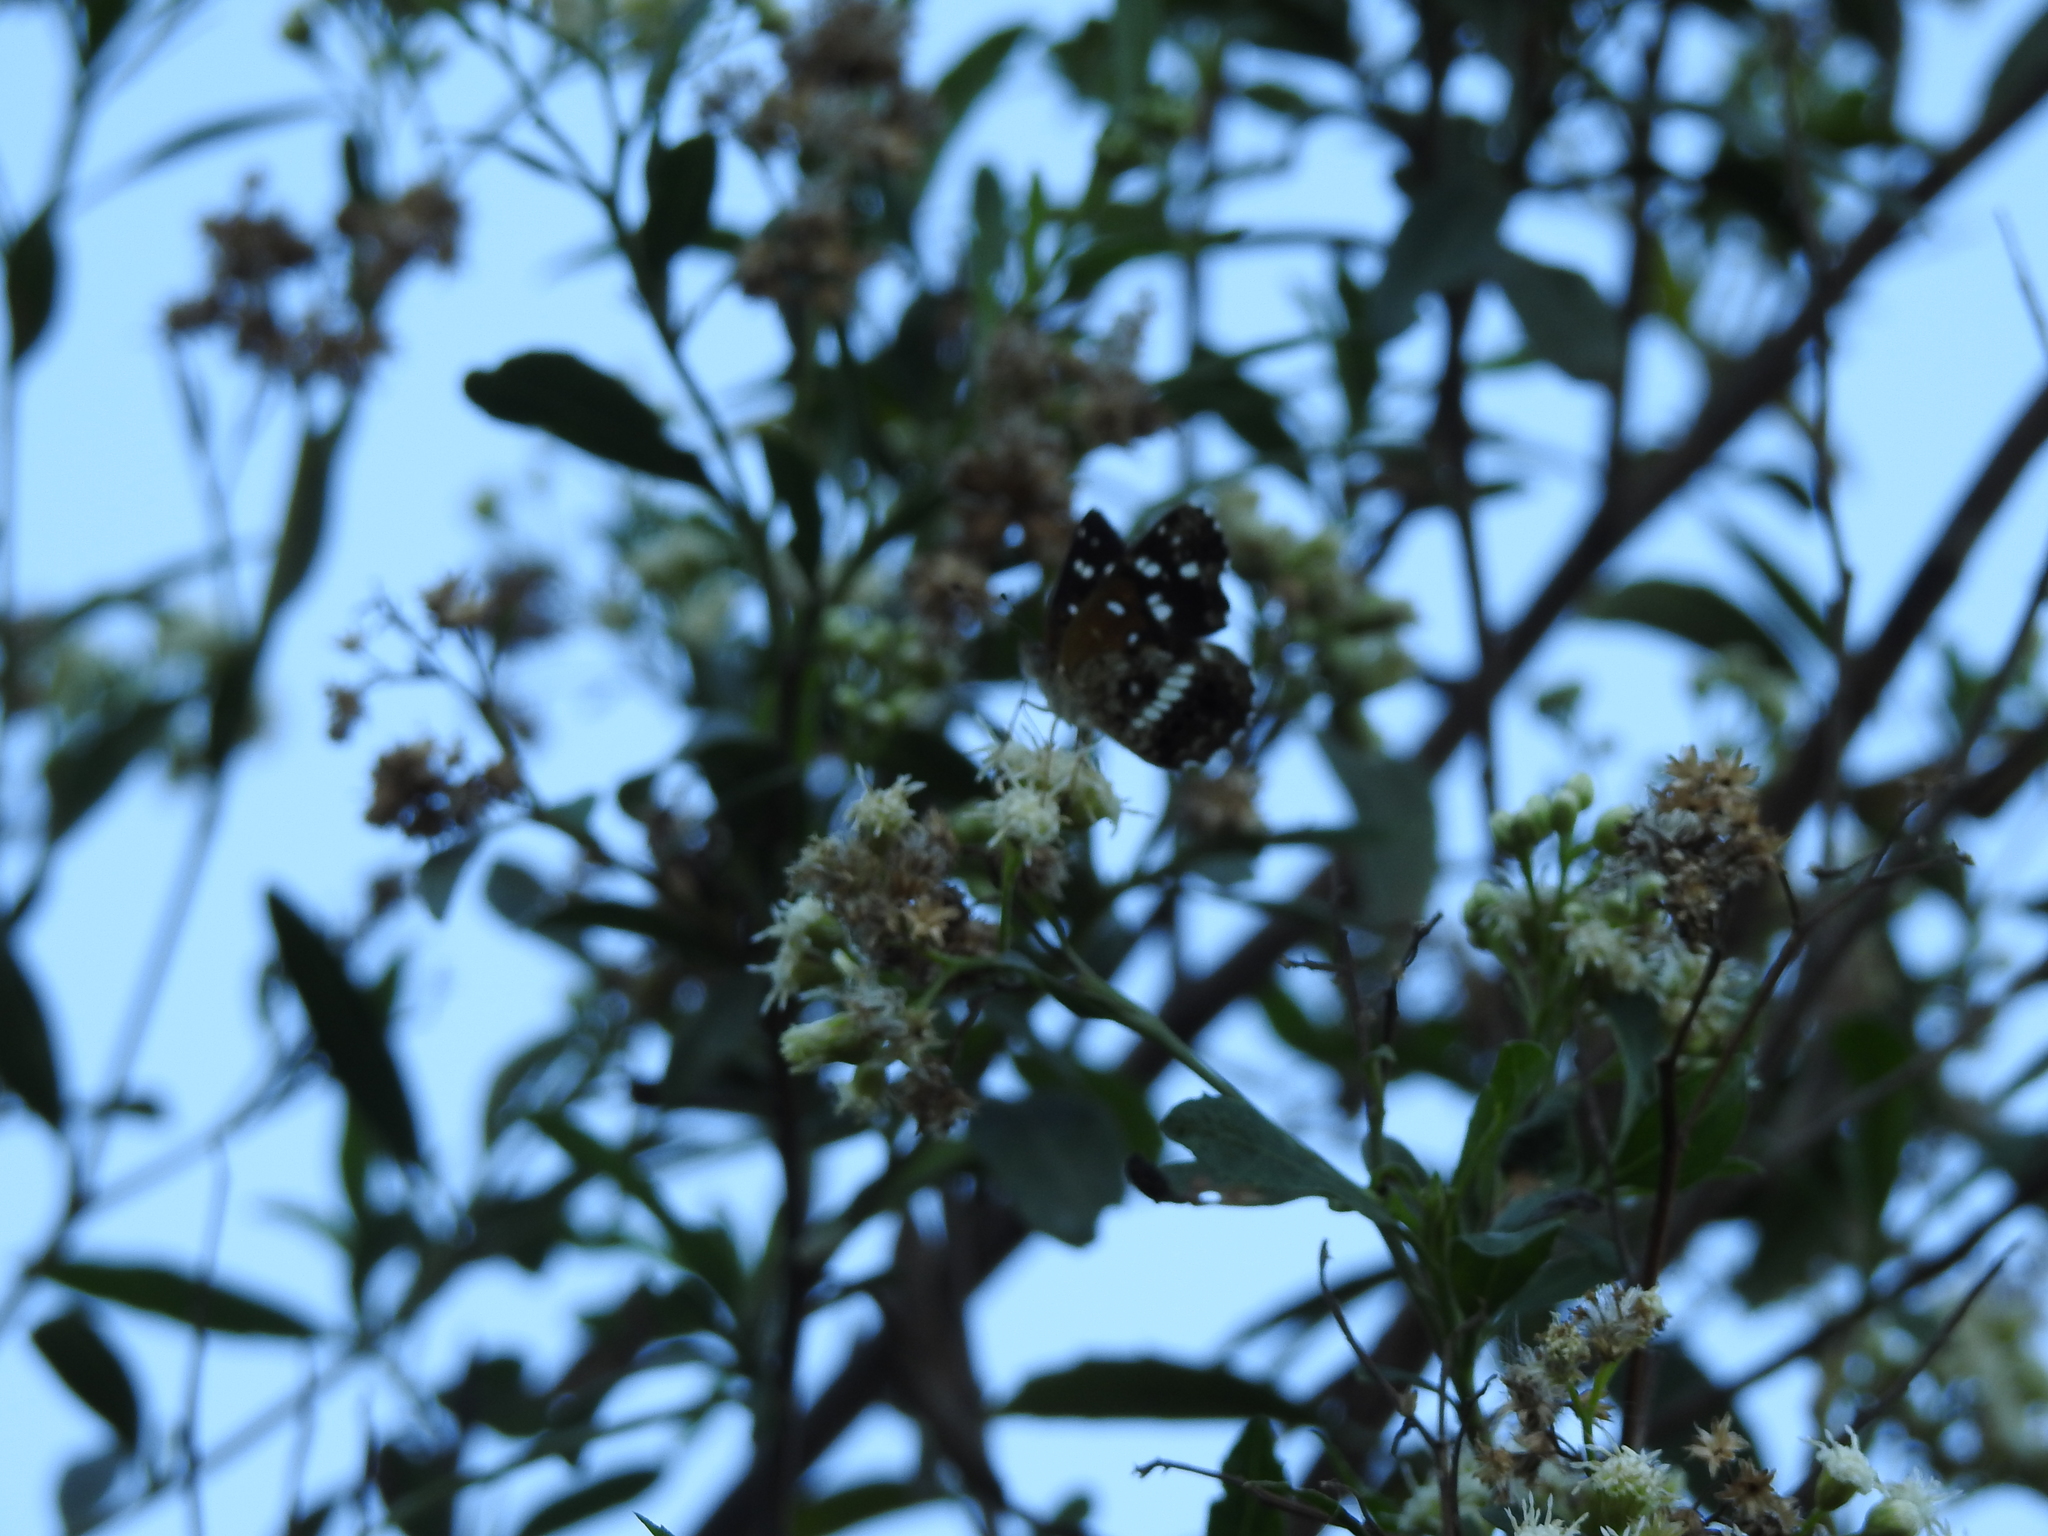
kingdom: Animalia
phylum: Arthropoda
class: Insecta
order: Lepidoptera
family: Nymphalidae
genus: Ortilia
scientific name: Ortilia ithra
